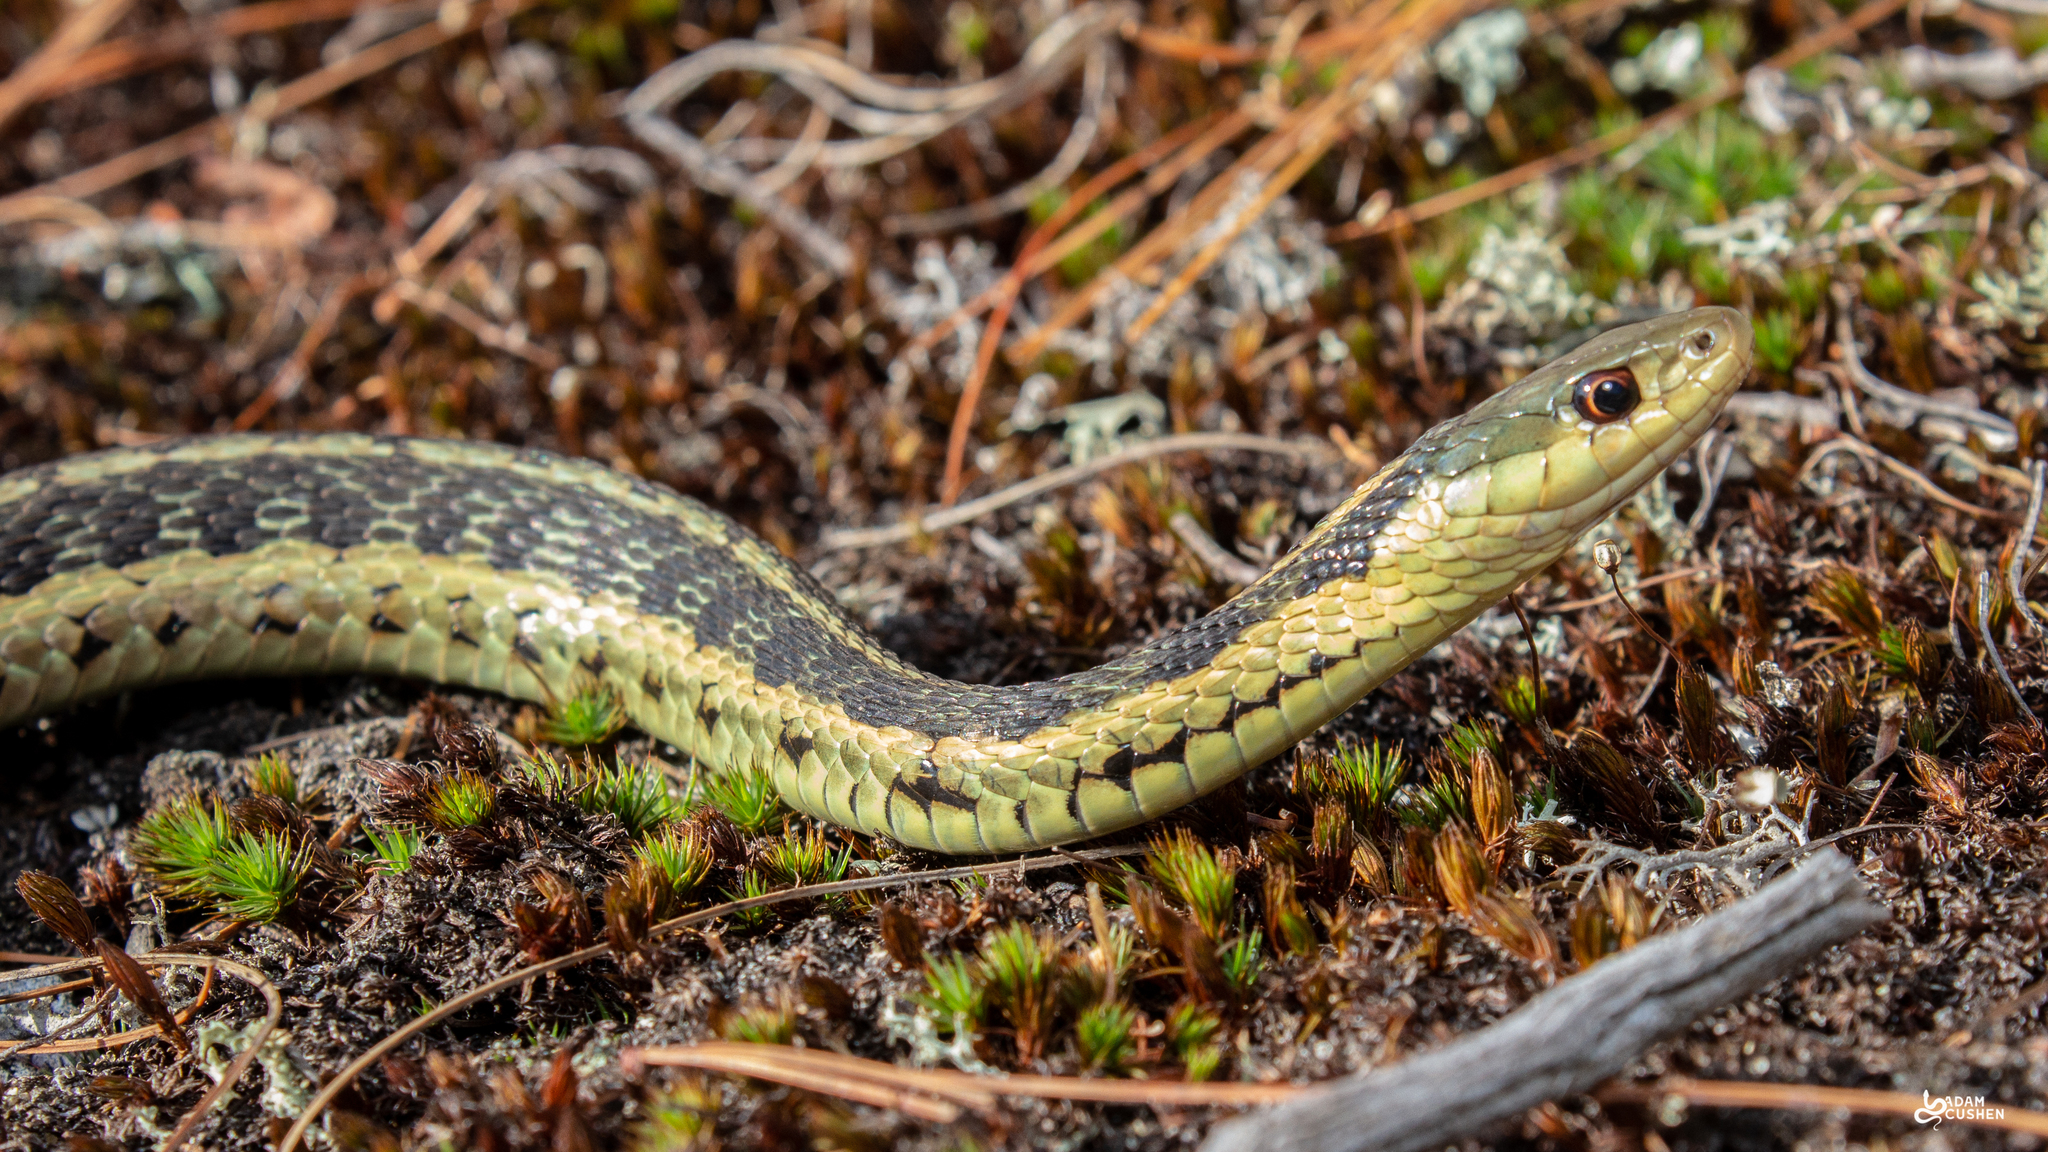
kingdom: Animalia
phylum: Chordata
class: Squamata
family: Colubridae
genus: Thamnophis
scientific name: Thamnophis sirtalis
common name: Common garter snake
